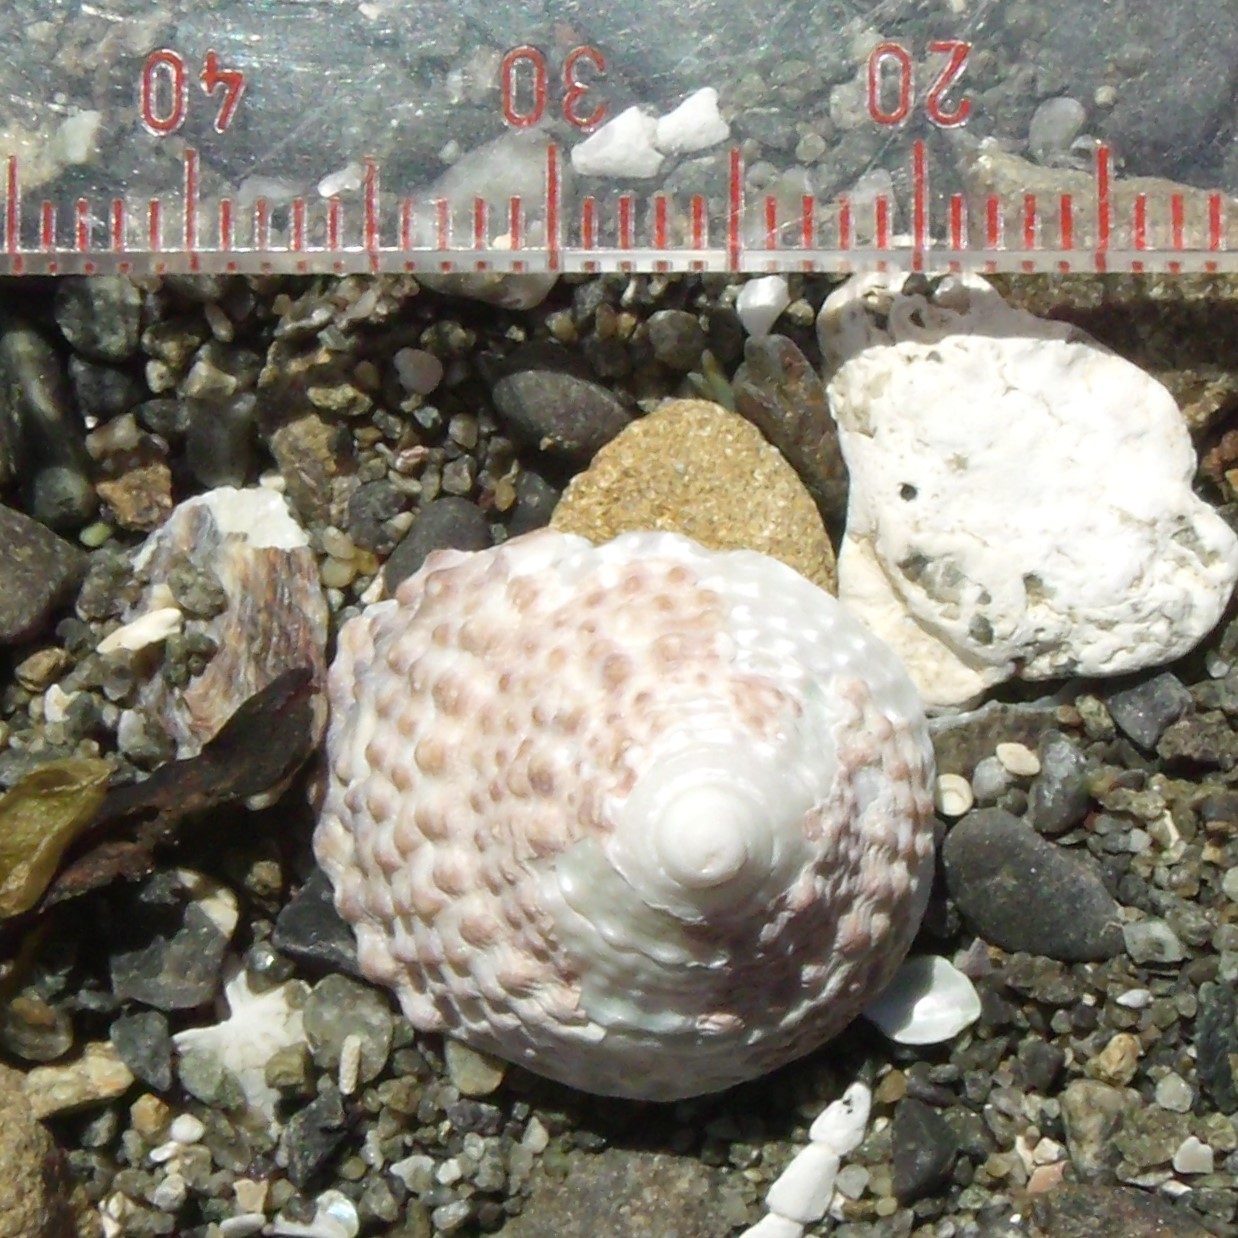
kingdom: Animalia
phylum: Mollusca
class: Gastropoda
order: Trochida
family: Trochidae
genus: Coelotrochus
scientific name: Coelotrochus viridis
